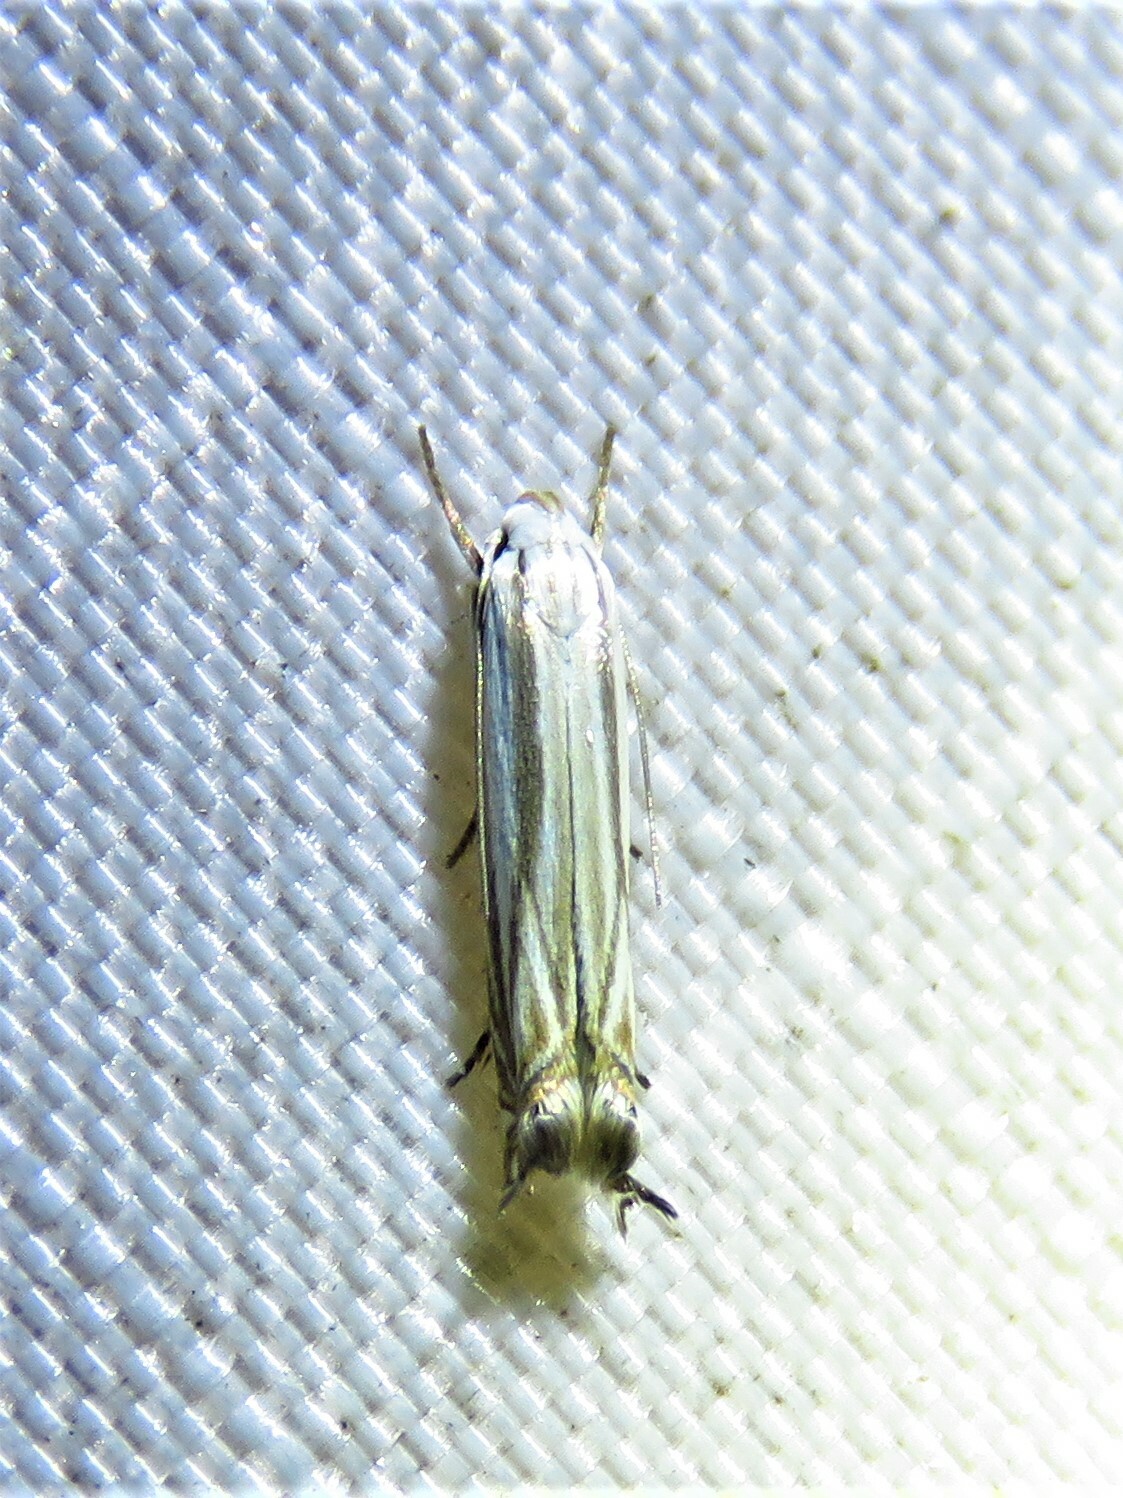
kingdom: Animalia
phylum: Arthropoda
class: Insecta
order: Lepidoptera
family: Gelechiidae
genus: Polyhymno
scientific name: Polyhymno luteostrigella
